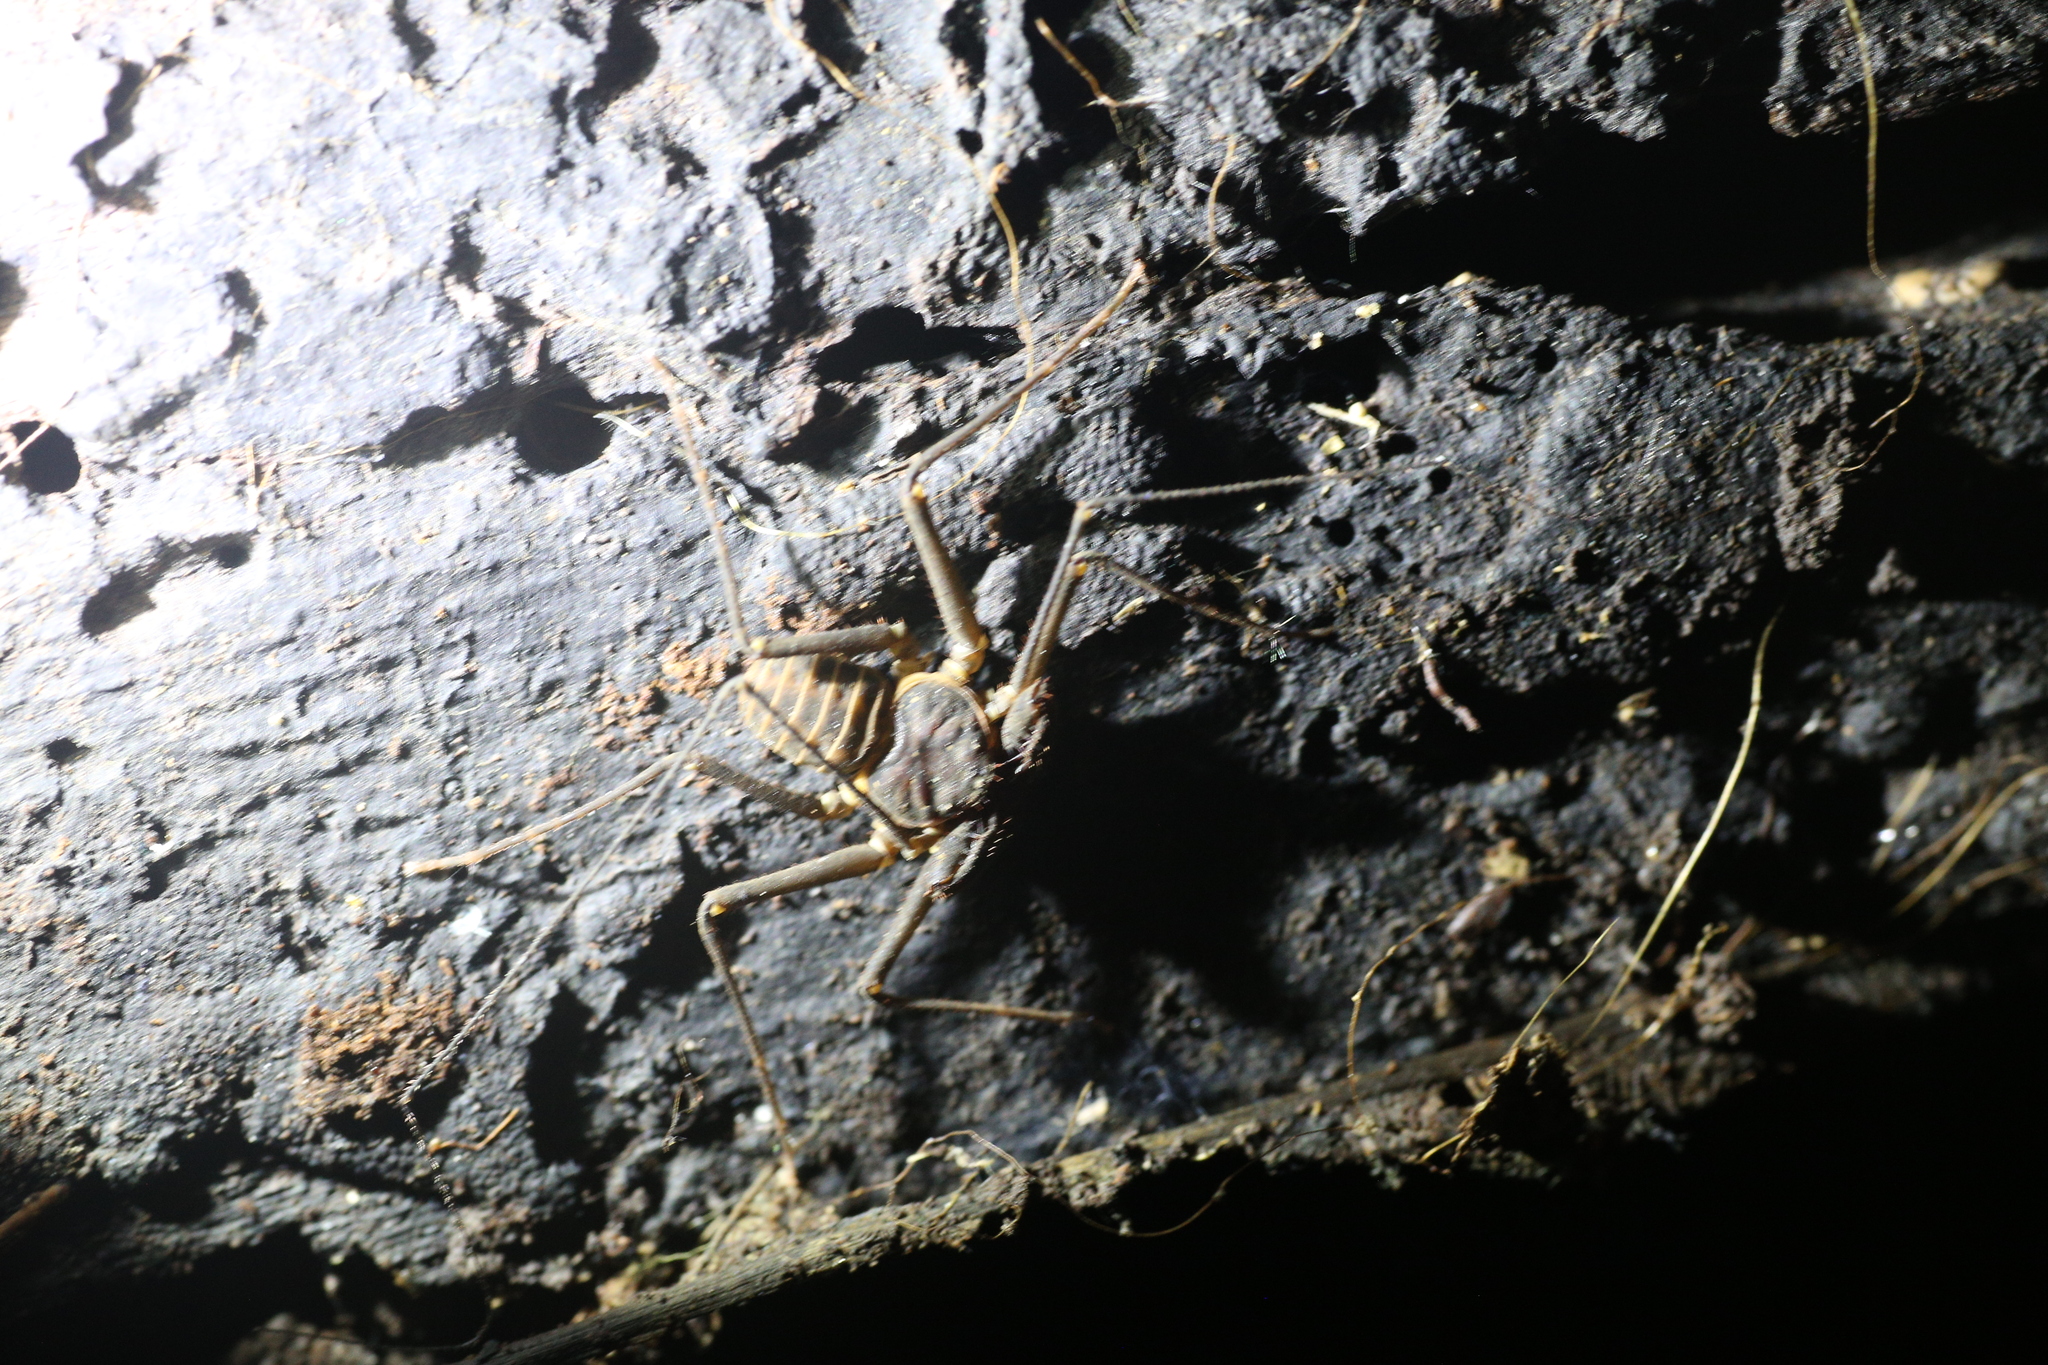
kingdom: Animalia
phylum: Arthropoda
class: Arachnida
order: Amblypygi
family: Charinidae
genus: Charinus
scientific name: Charinus pescotti
